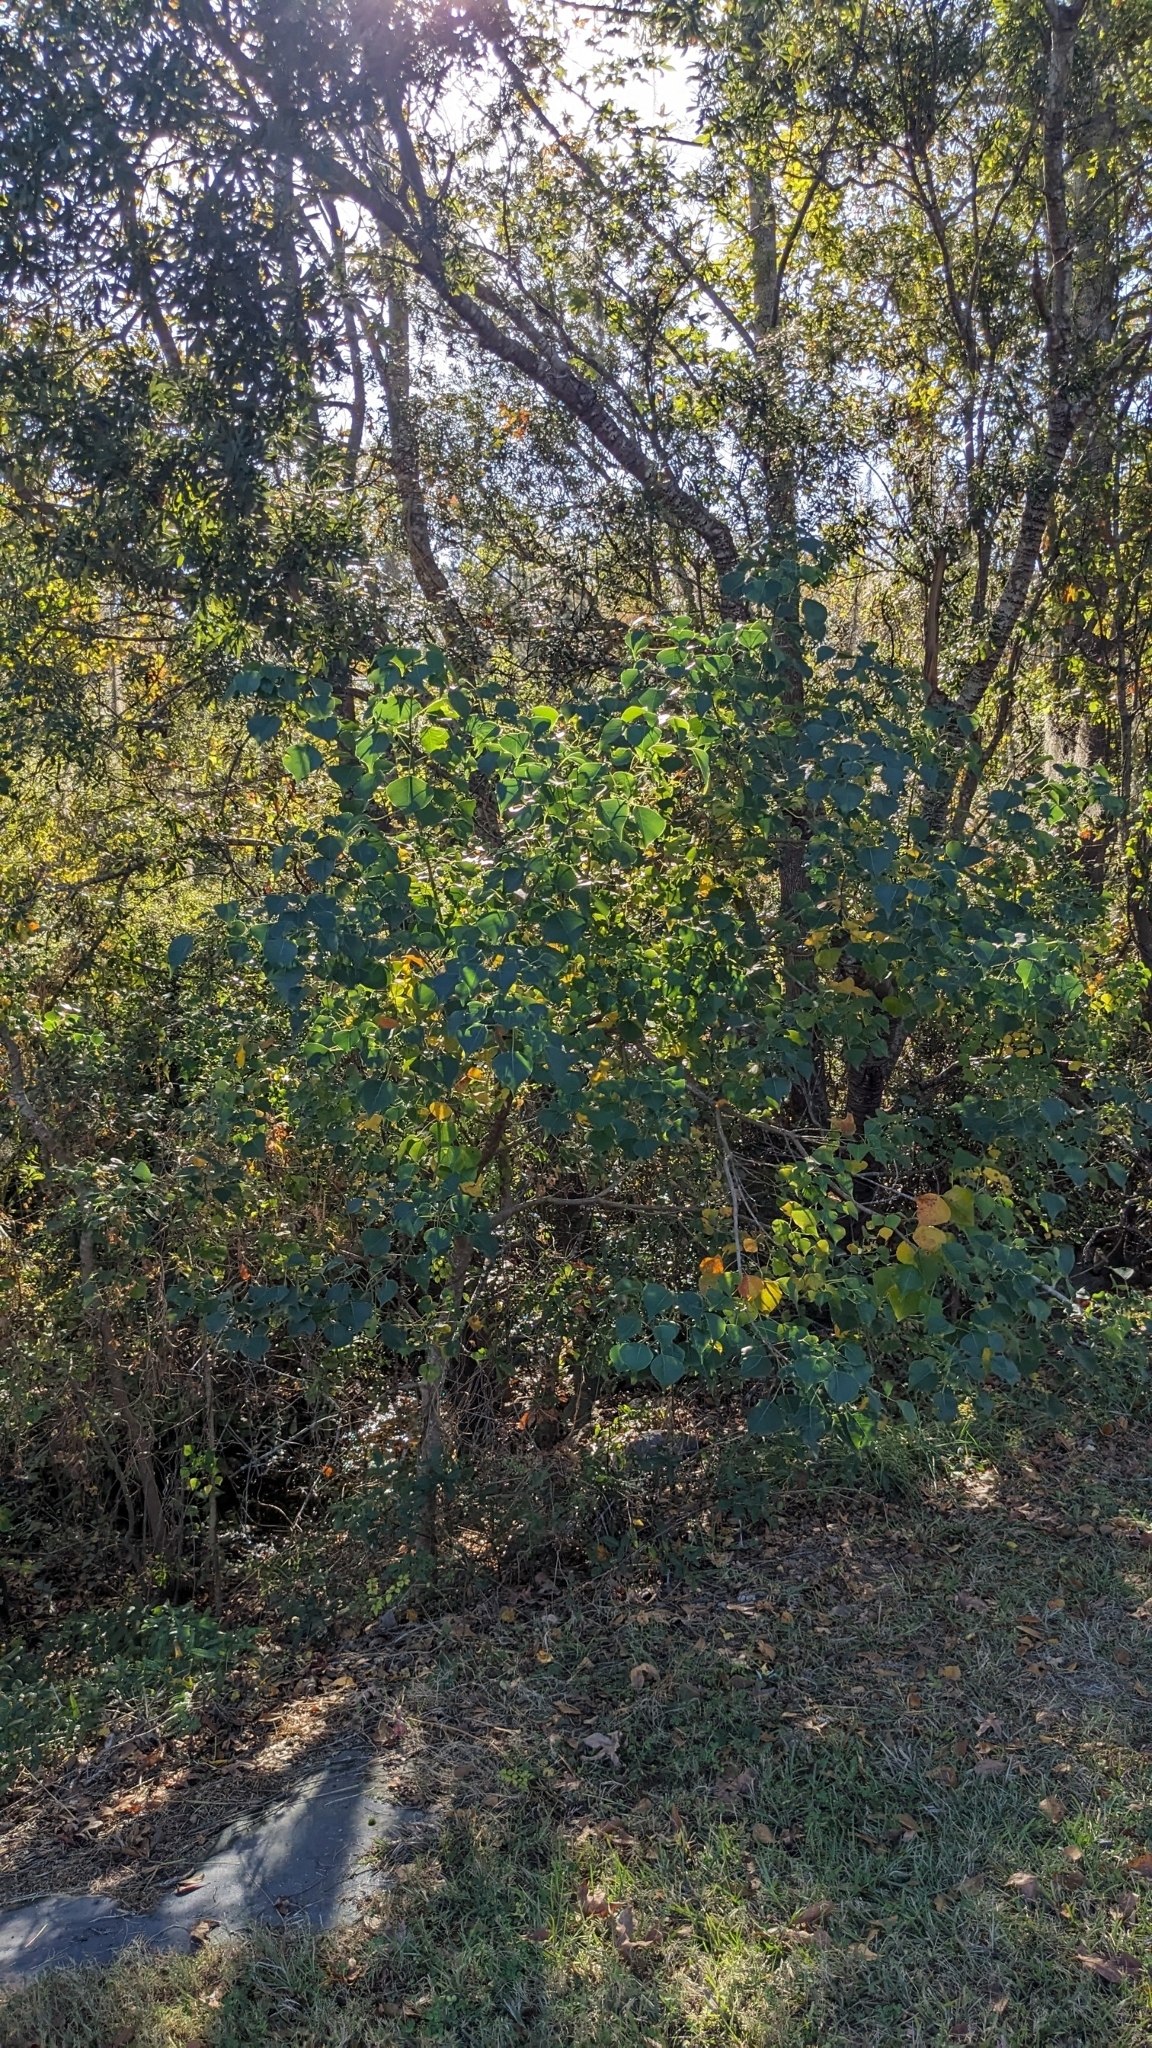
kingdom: Plantae
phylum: Tracheophyta
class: Magnoliopsida
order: Malpighiales
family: Euphorbiaceae
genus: Triadica
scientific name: Triadica sebifera
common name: Chinese tallow
